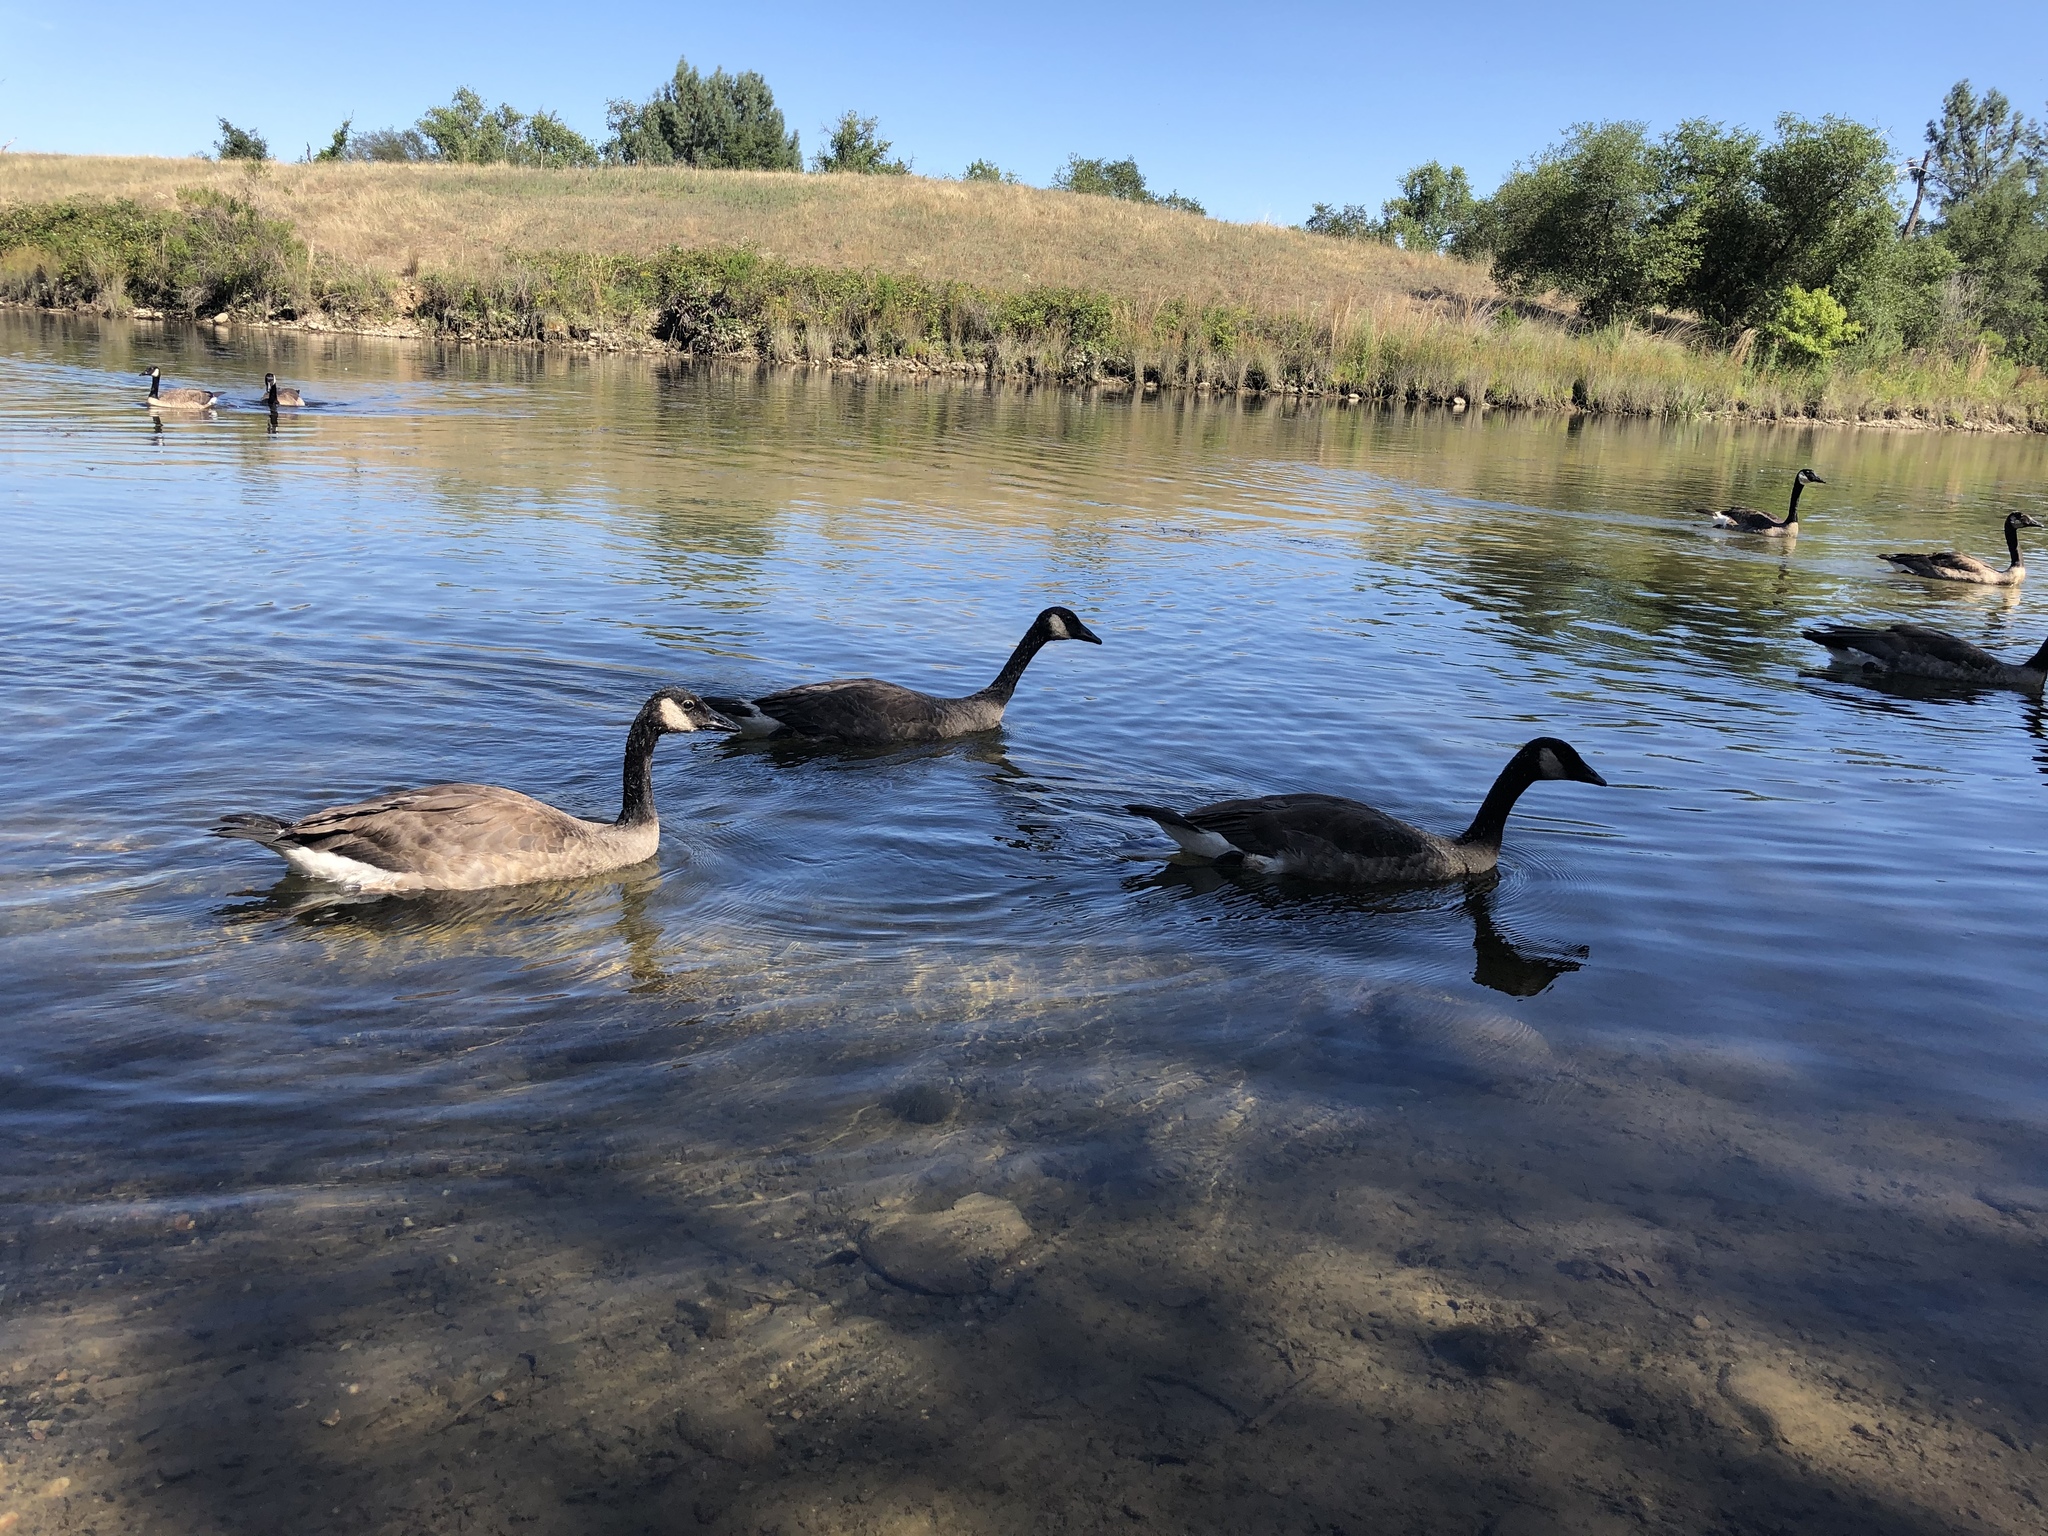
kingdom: Animalia
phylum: Chordata
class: Aves
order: Anseriformes
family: Anatidae
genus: Branta
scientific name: Branta canadensis
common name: Canada goose
